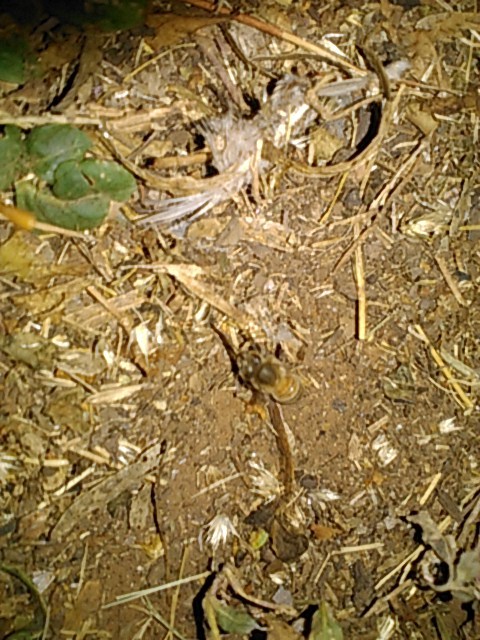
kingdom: Animalia
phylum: Arthropoda
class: Insecta
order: Hymenoptera
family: Apidae
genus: Apis
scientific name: Apis mellifera
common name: Honey bee
